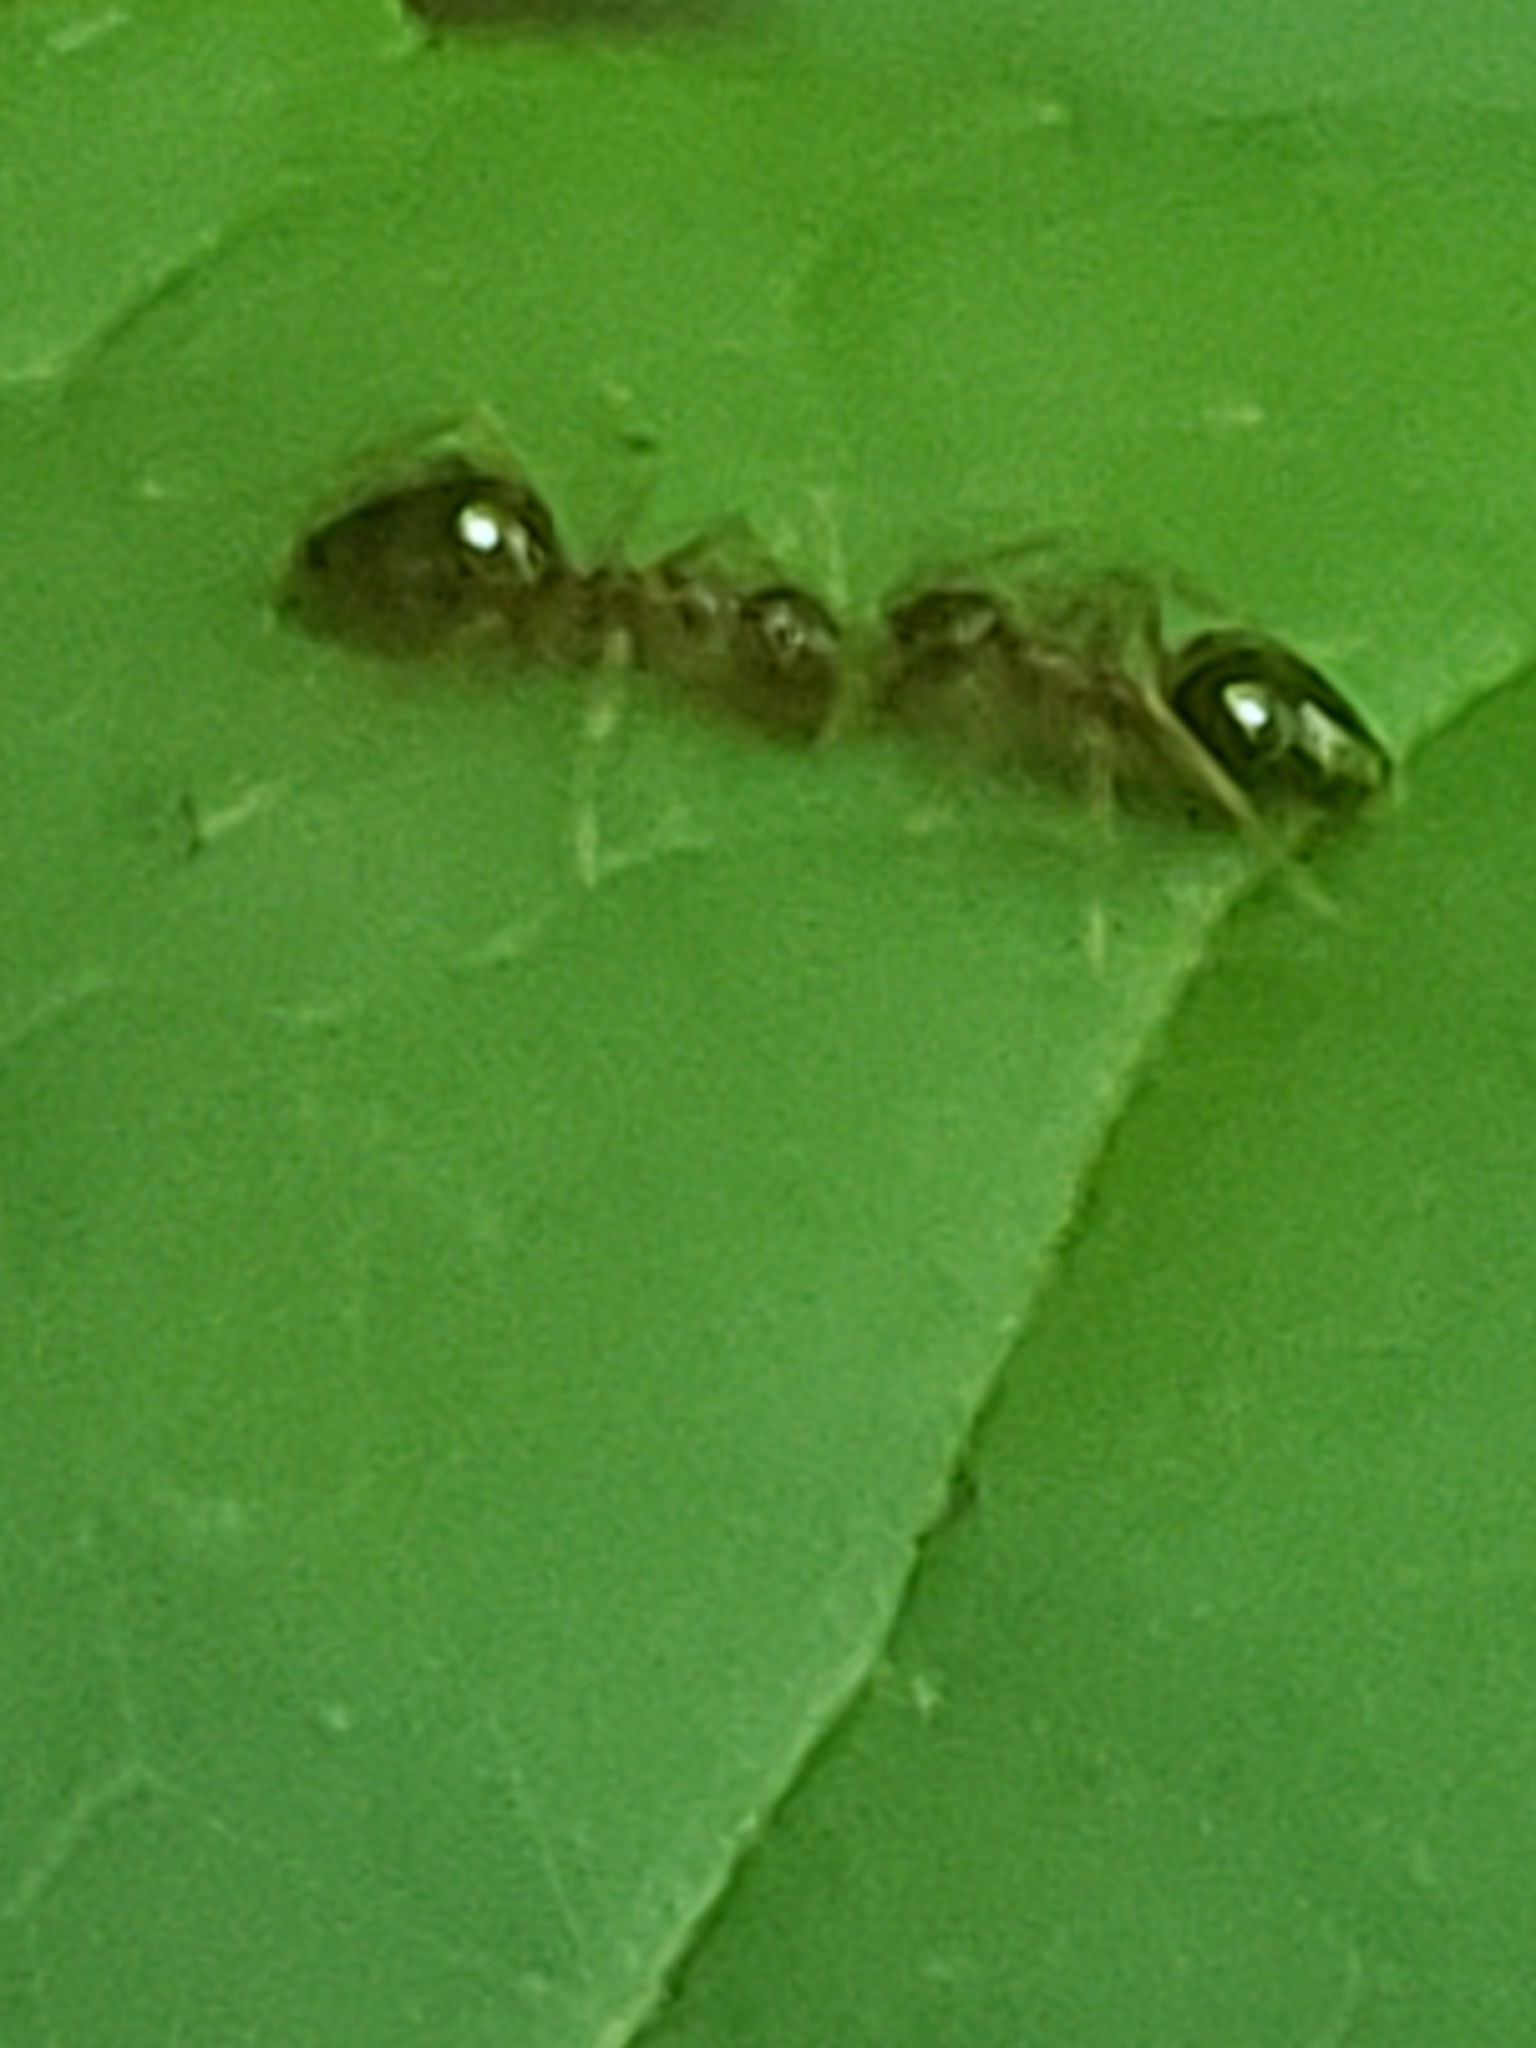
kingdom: Animalia
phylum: Arthropoda
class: Insecta
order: Hymenoptera
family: Formicidae
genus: Prenolepis
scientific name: Prenolepis imparis
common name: Small honey ant
